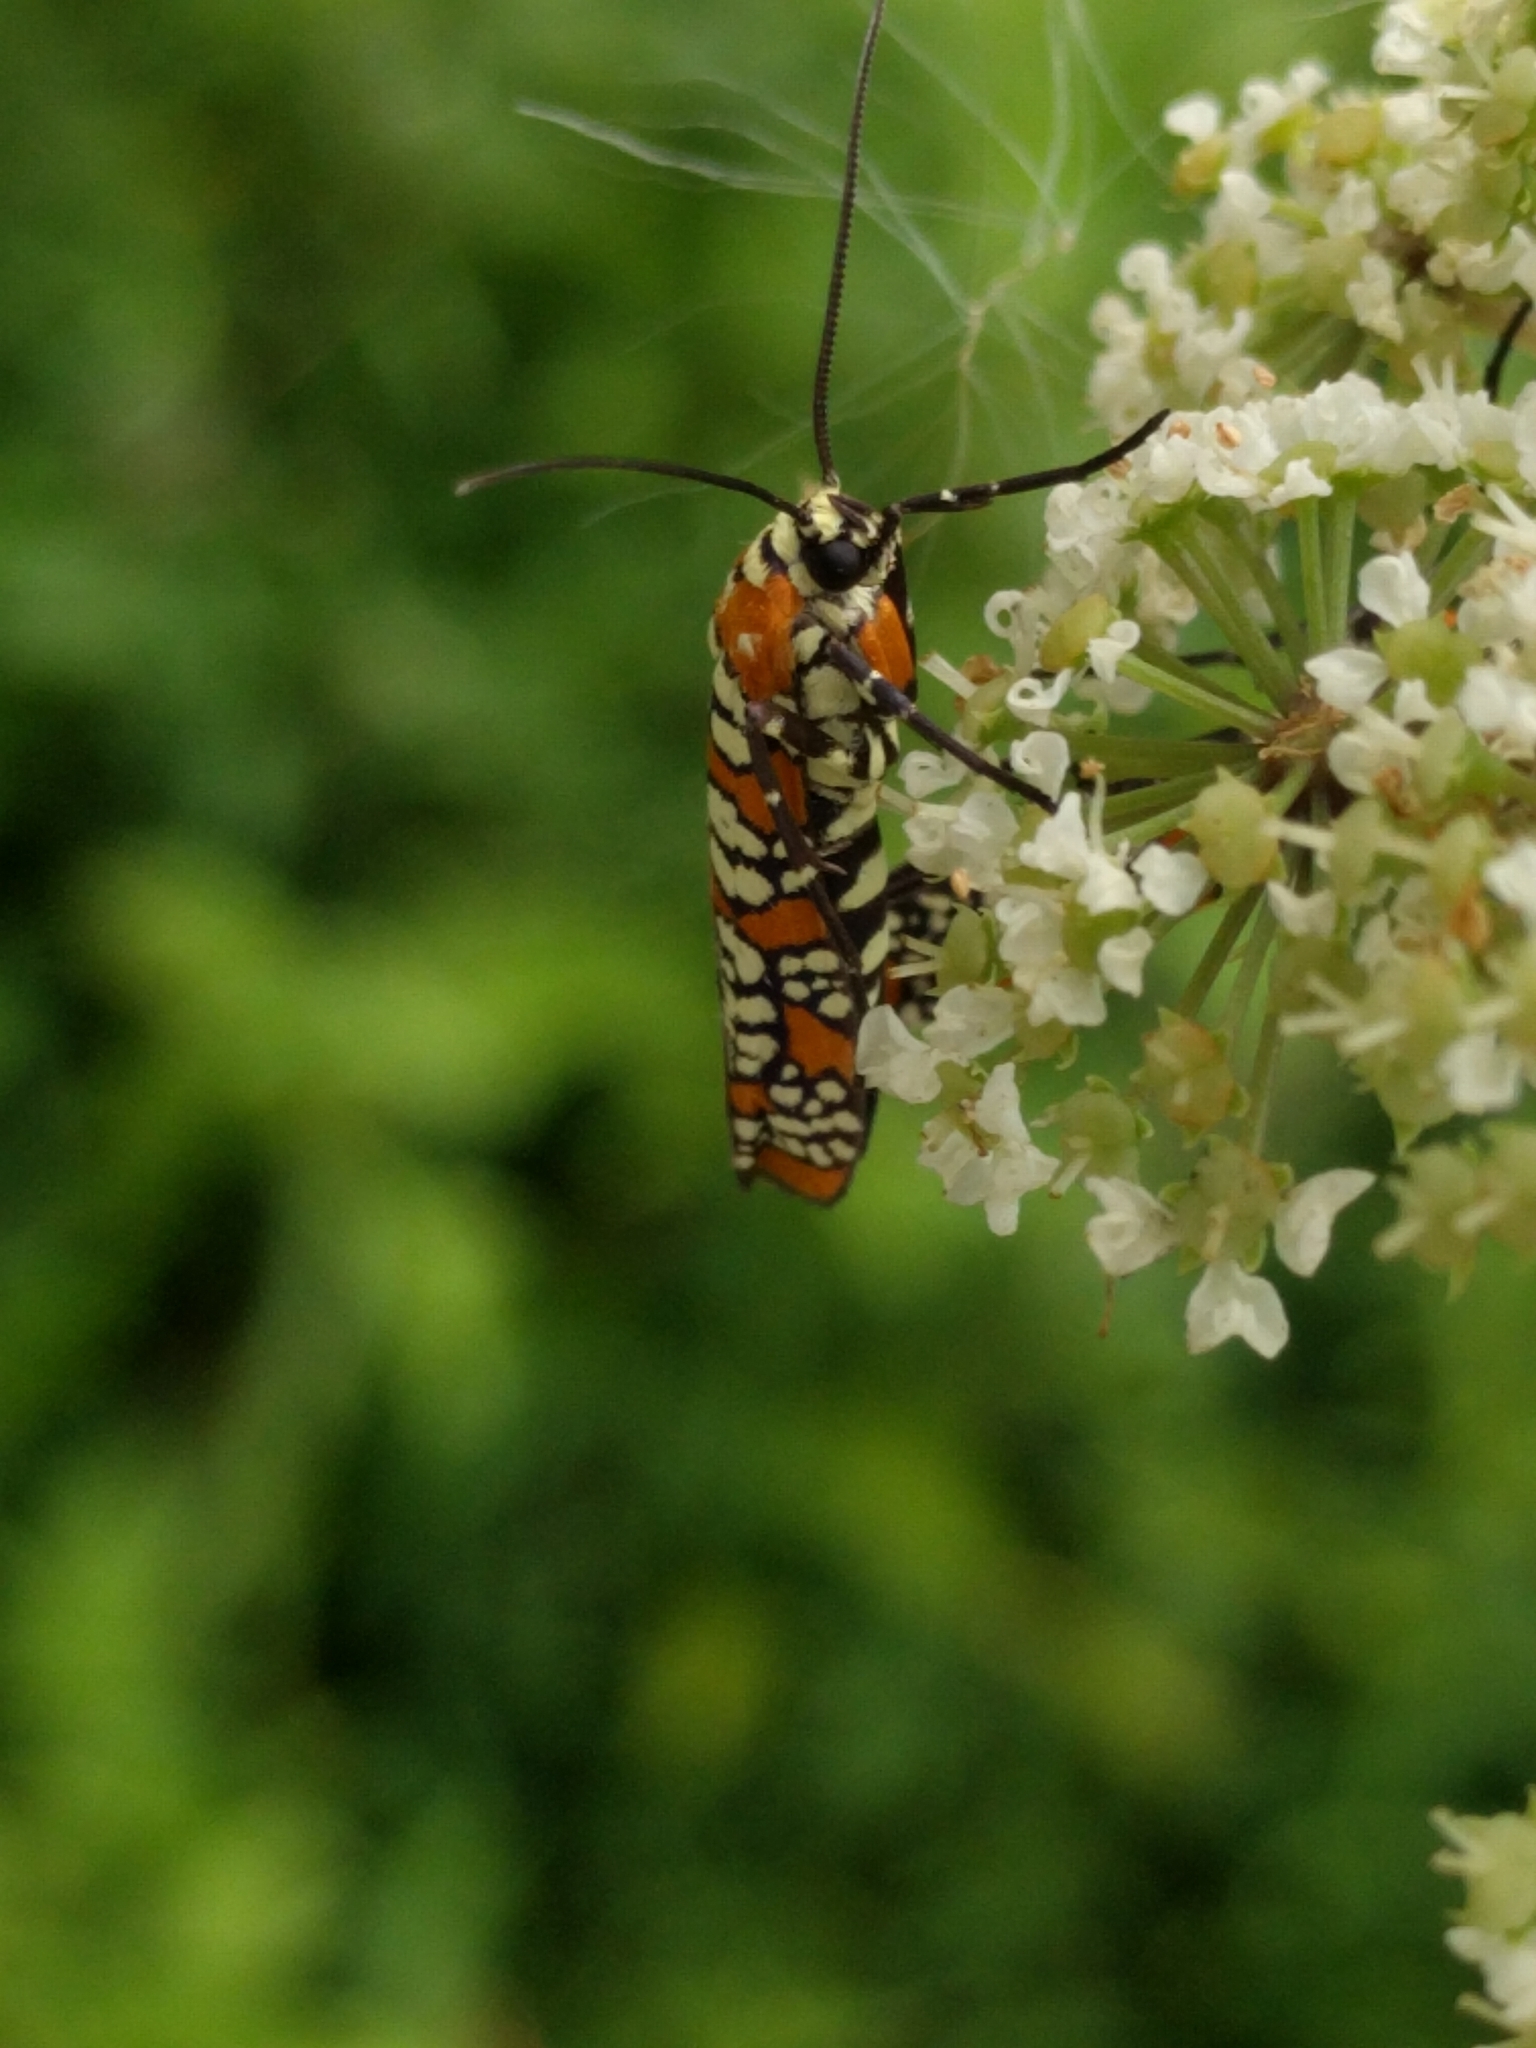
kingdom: Animalia
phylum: Arthropoda
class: Insecta
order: Lepidoptera
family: Attevidae
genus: Atteva
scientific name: Atteva punctella
